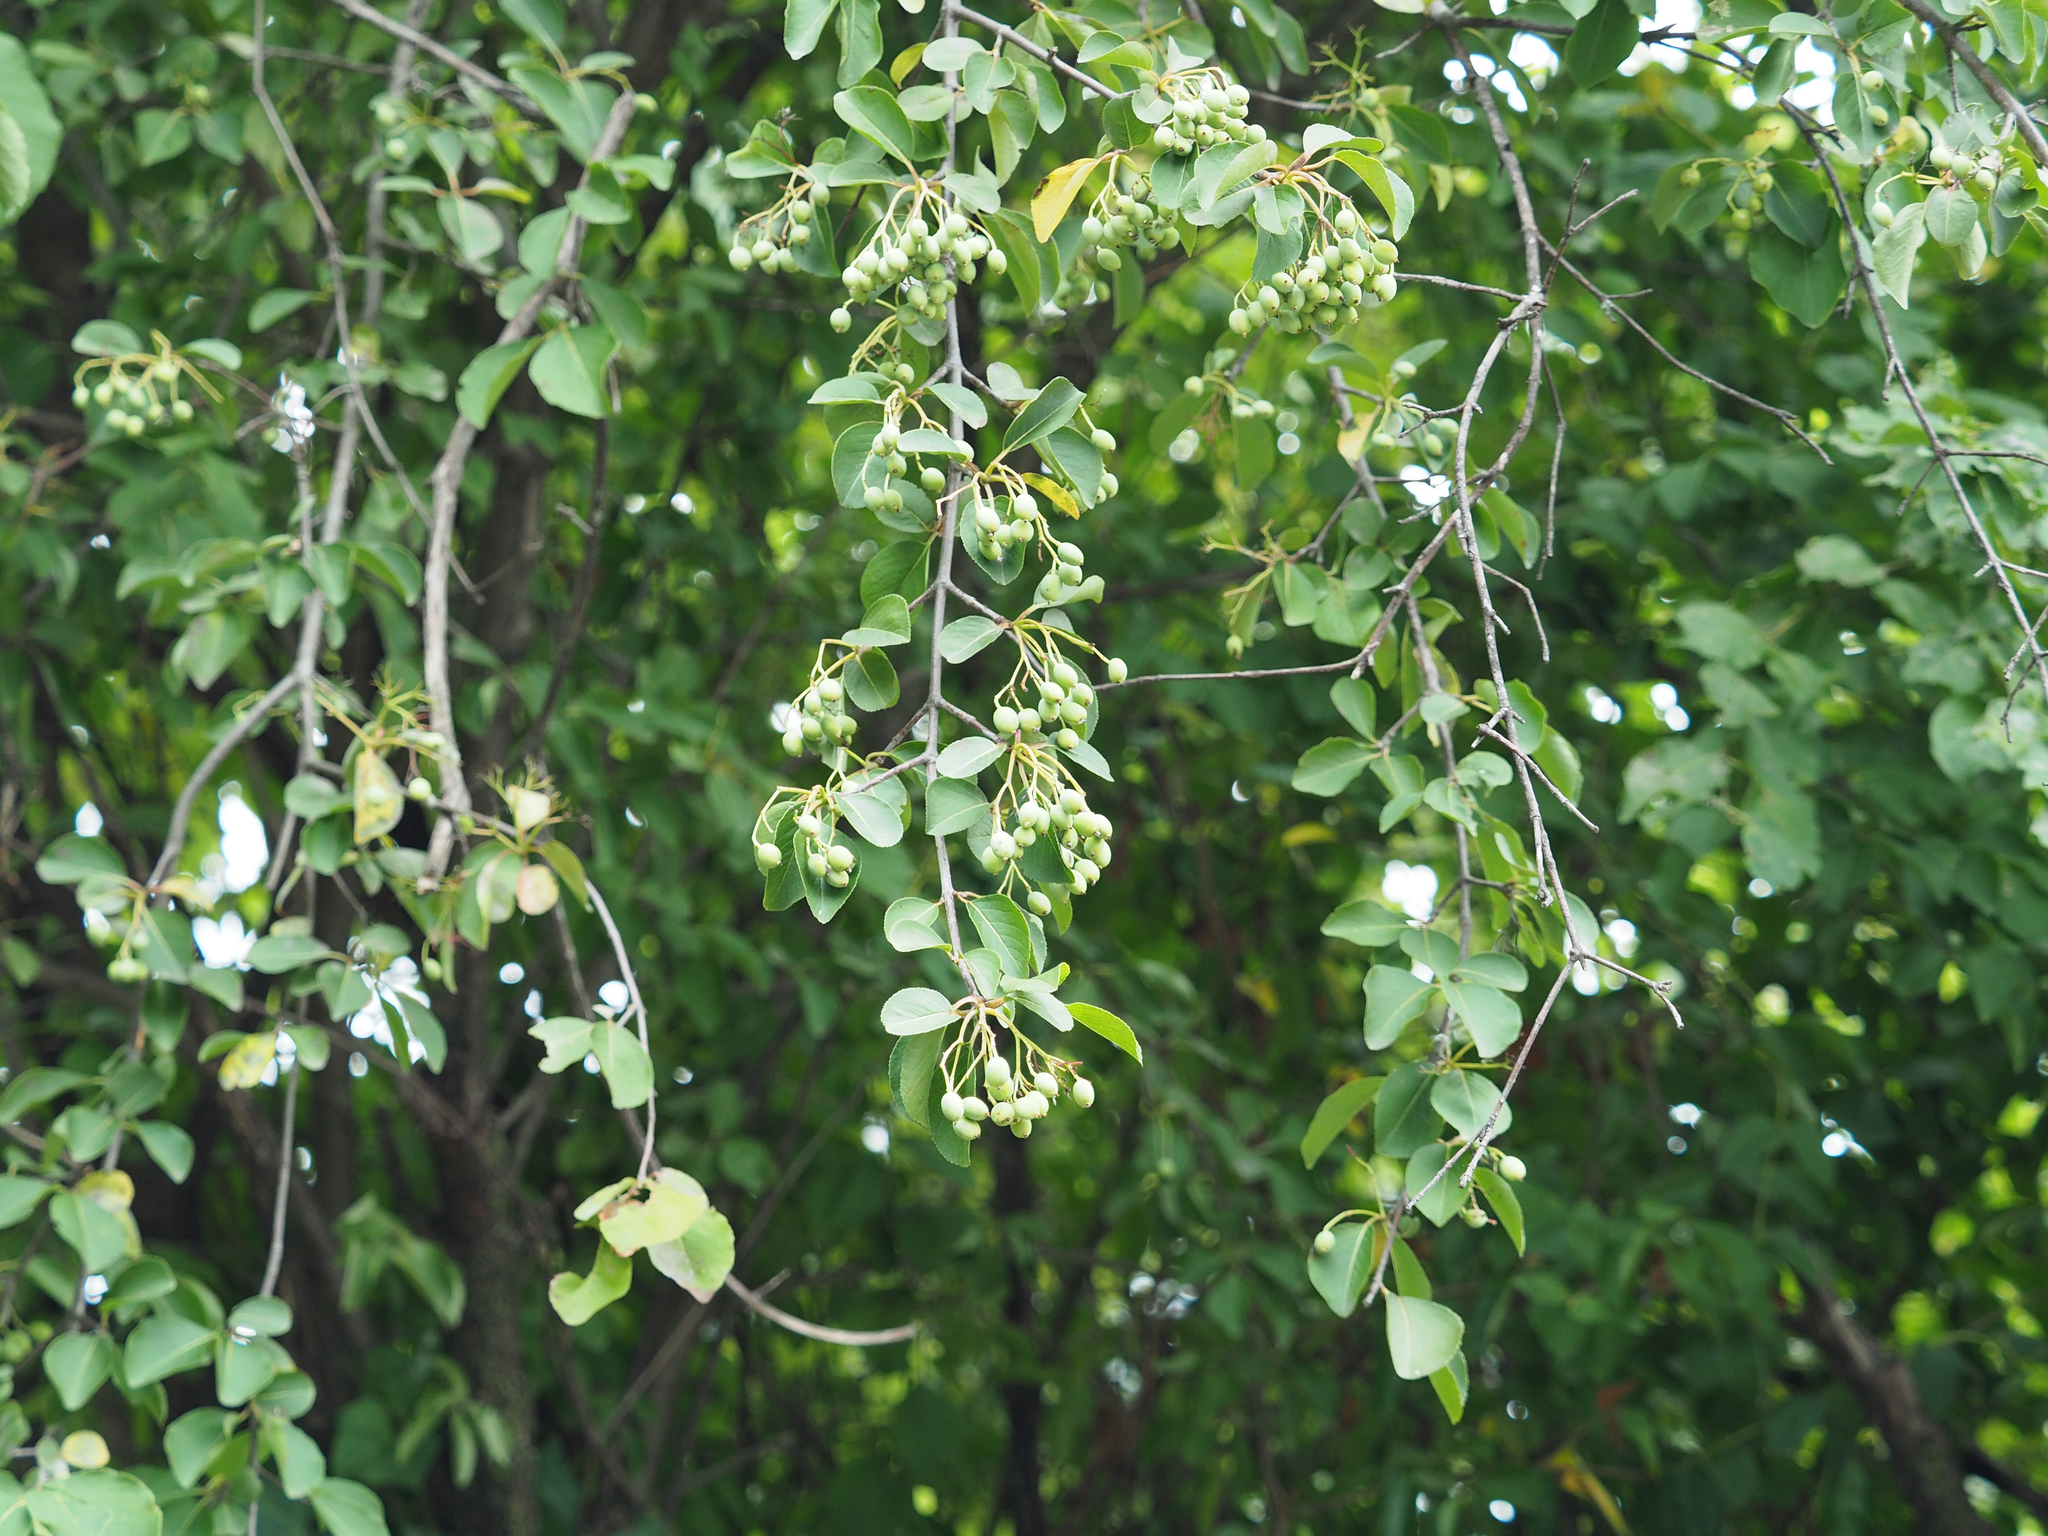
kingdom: Plantae
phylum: Tracheophyta
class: Magnoliopsida
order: Dipsacales
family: Viburnaceae
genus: Viburnum
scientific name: Viburnum prunifolium
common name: Black haw
